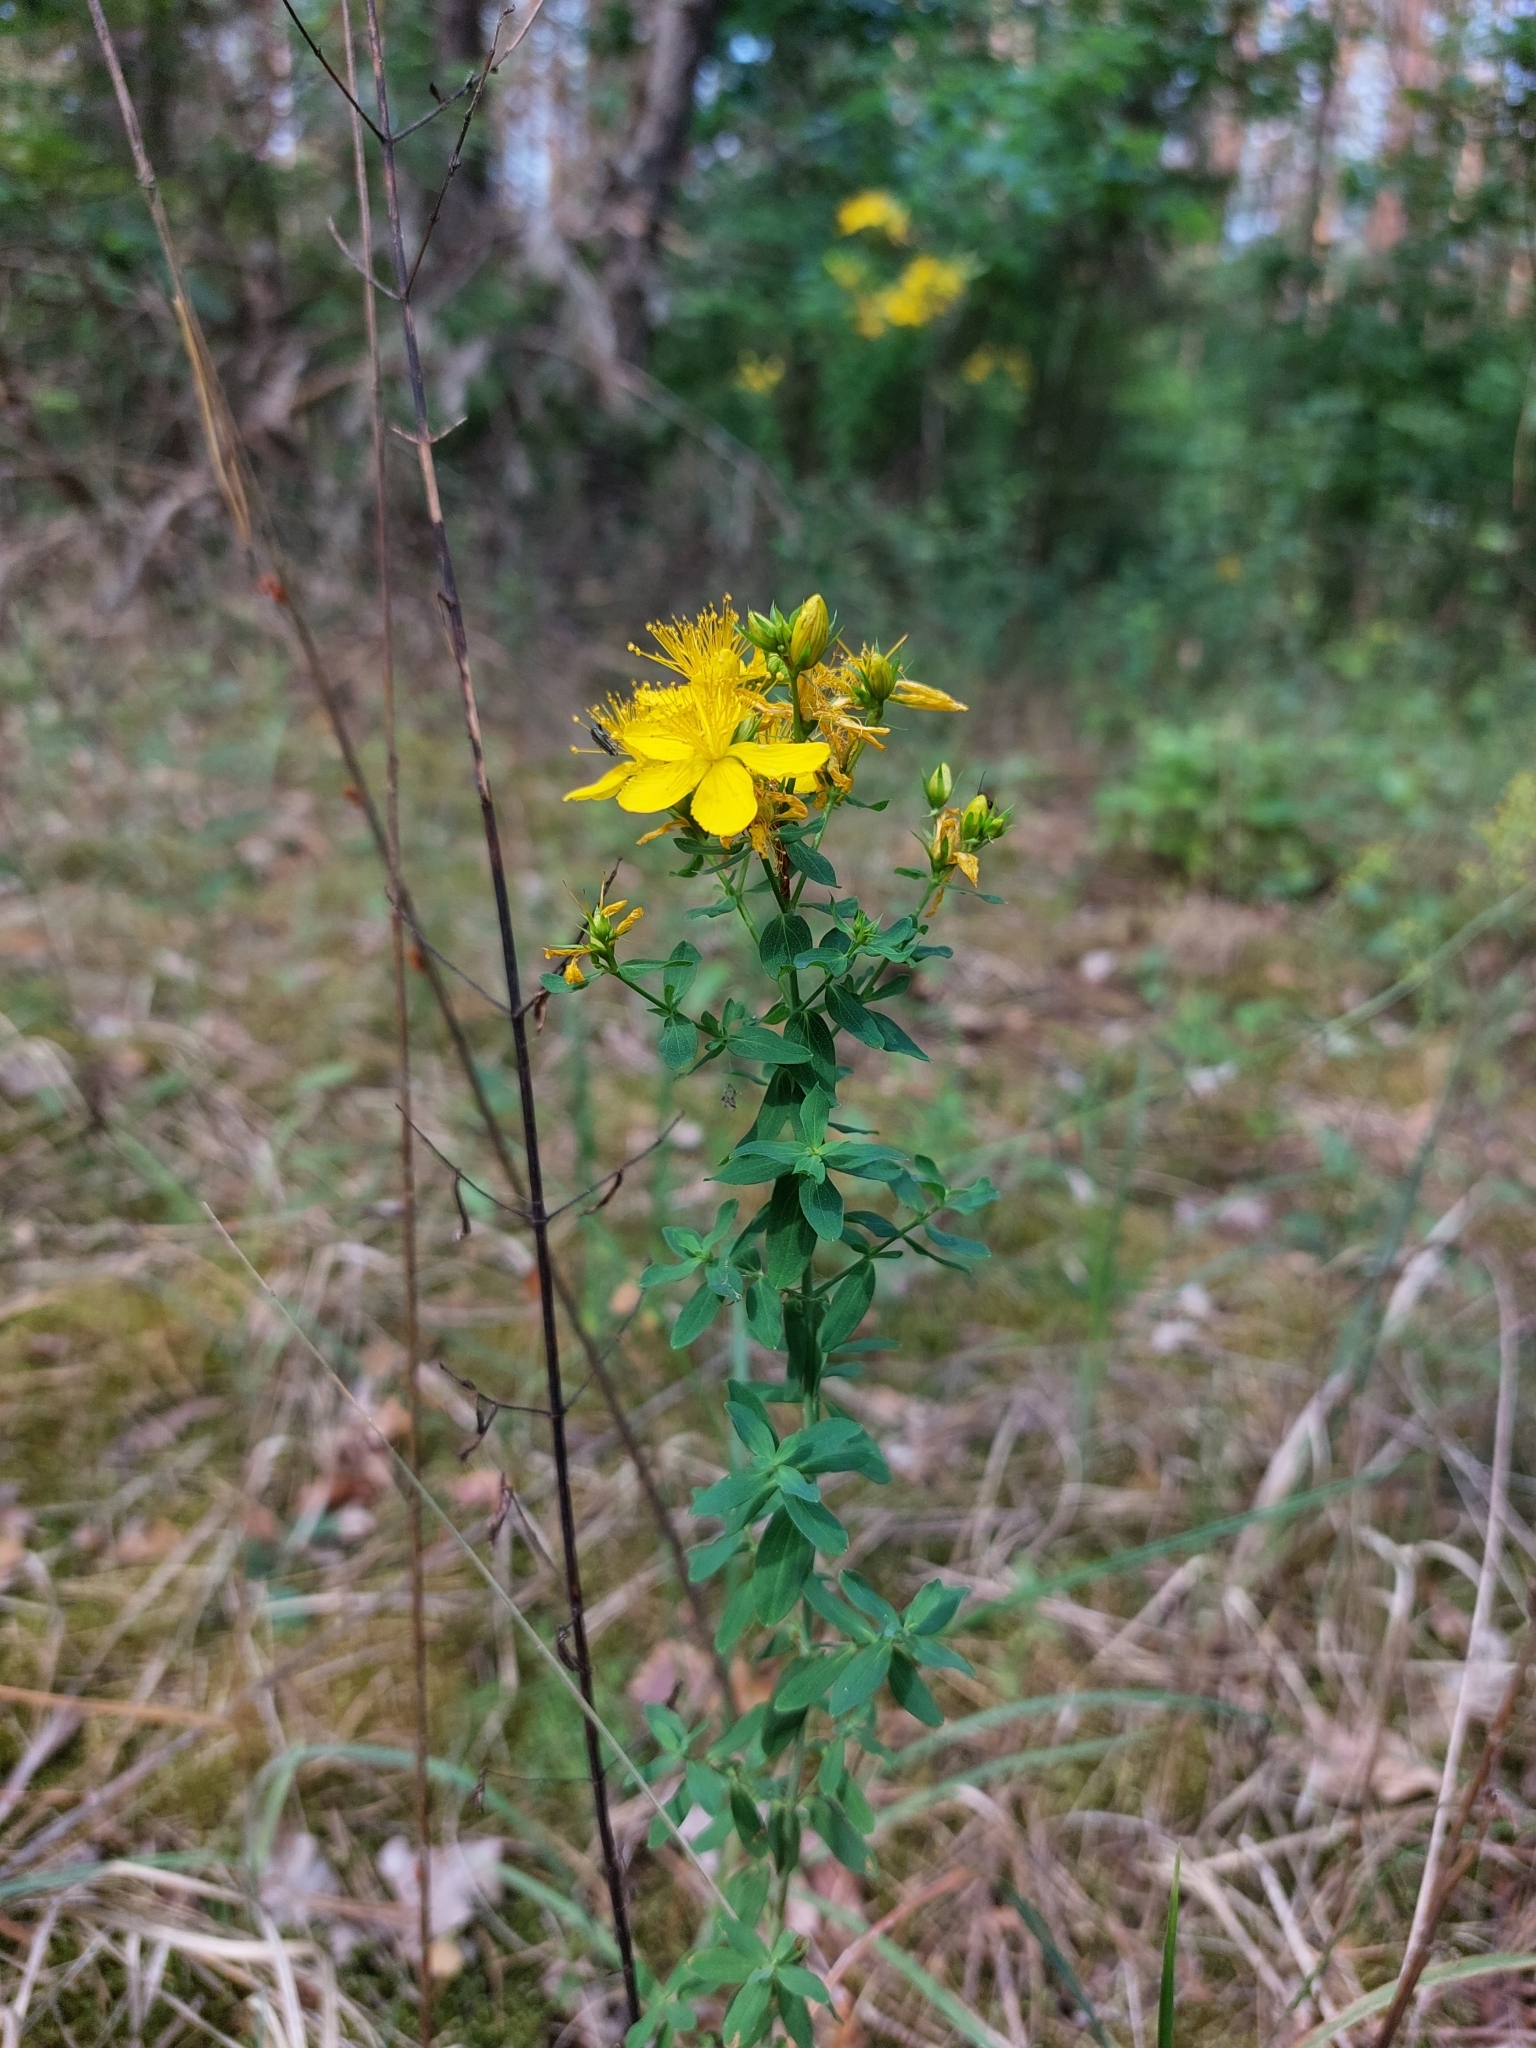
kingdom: Plantae
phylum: Tracheophyta
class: Magnoliopsida
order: Malpighiales
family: Hypericaceae
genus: Hypericum
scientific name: Hypericum perforatum
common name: Common st. johnswort
